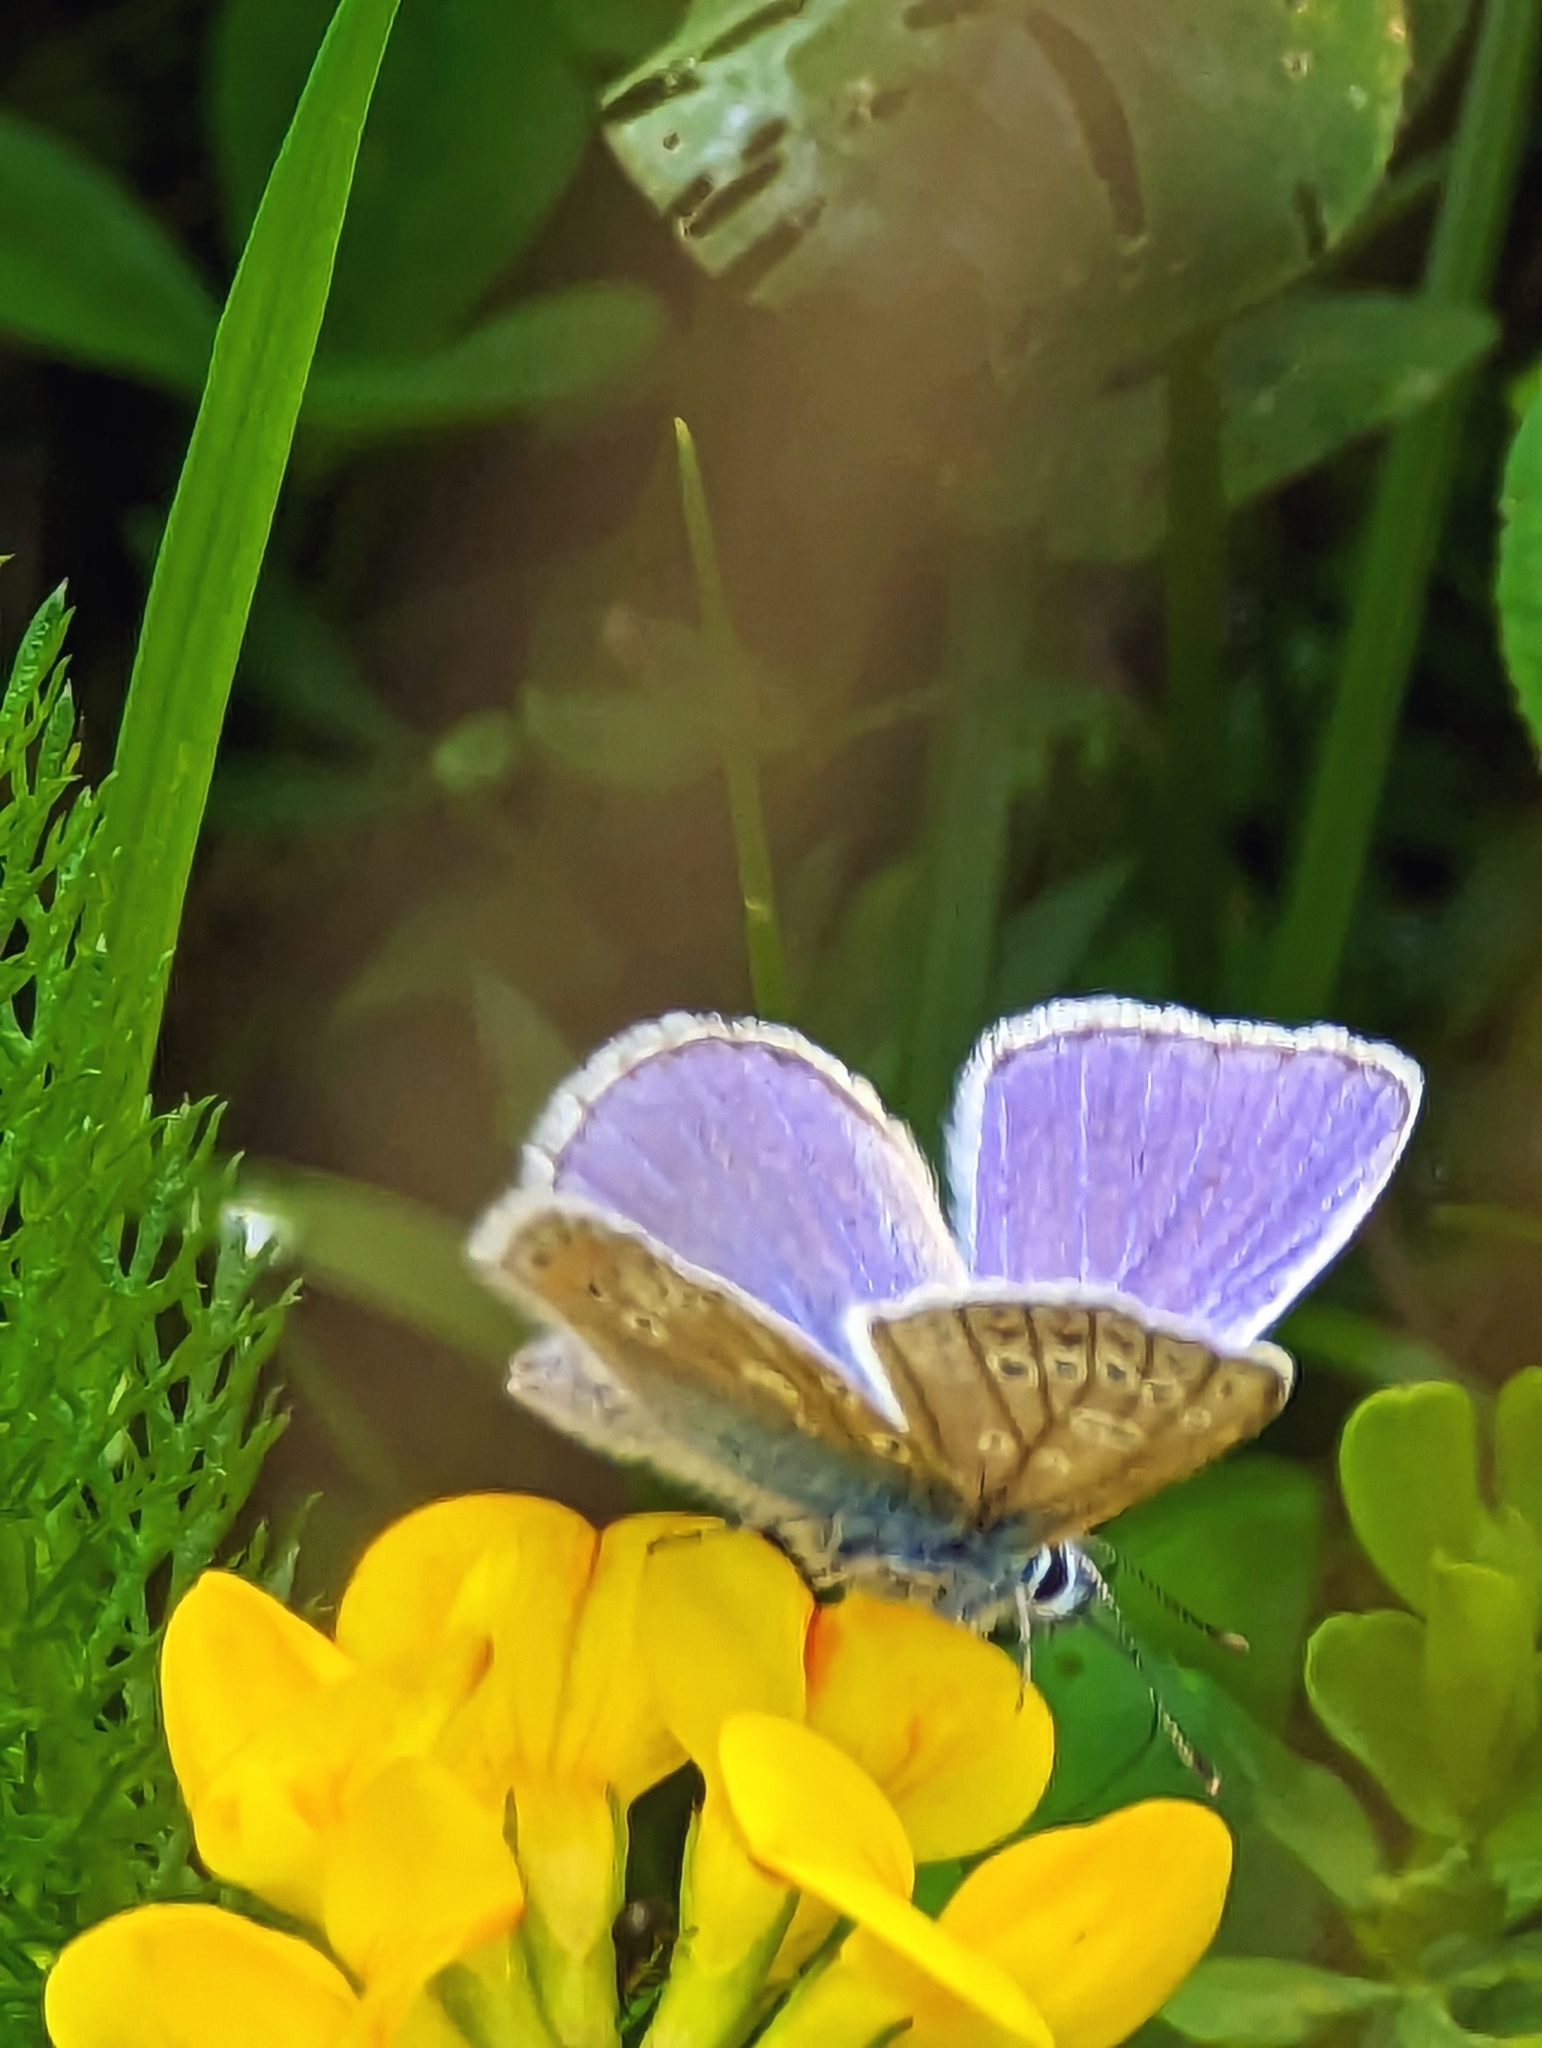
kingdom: Animalia
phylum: Arthropoda
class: Insecta
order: Lepidoptera
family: Lycaenidae
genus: Polyommatus
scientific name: Polyommatus icarus
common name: Common blue
